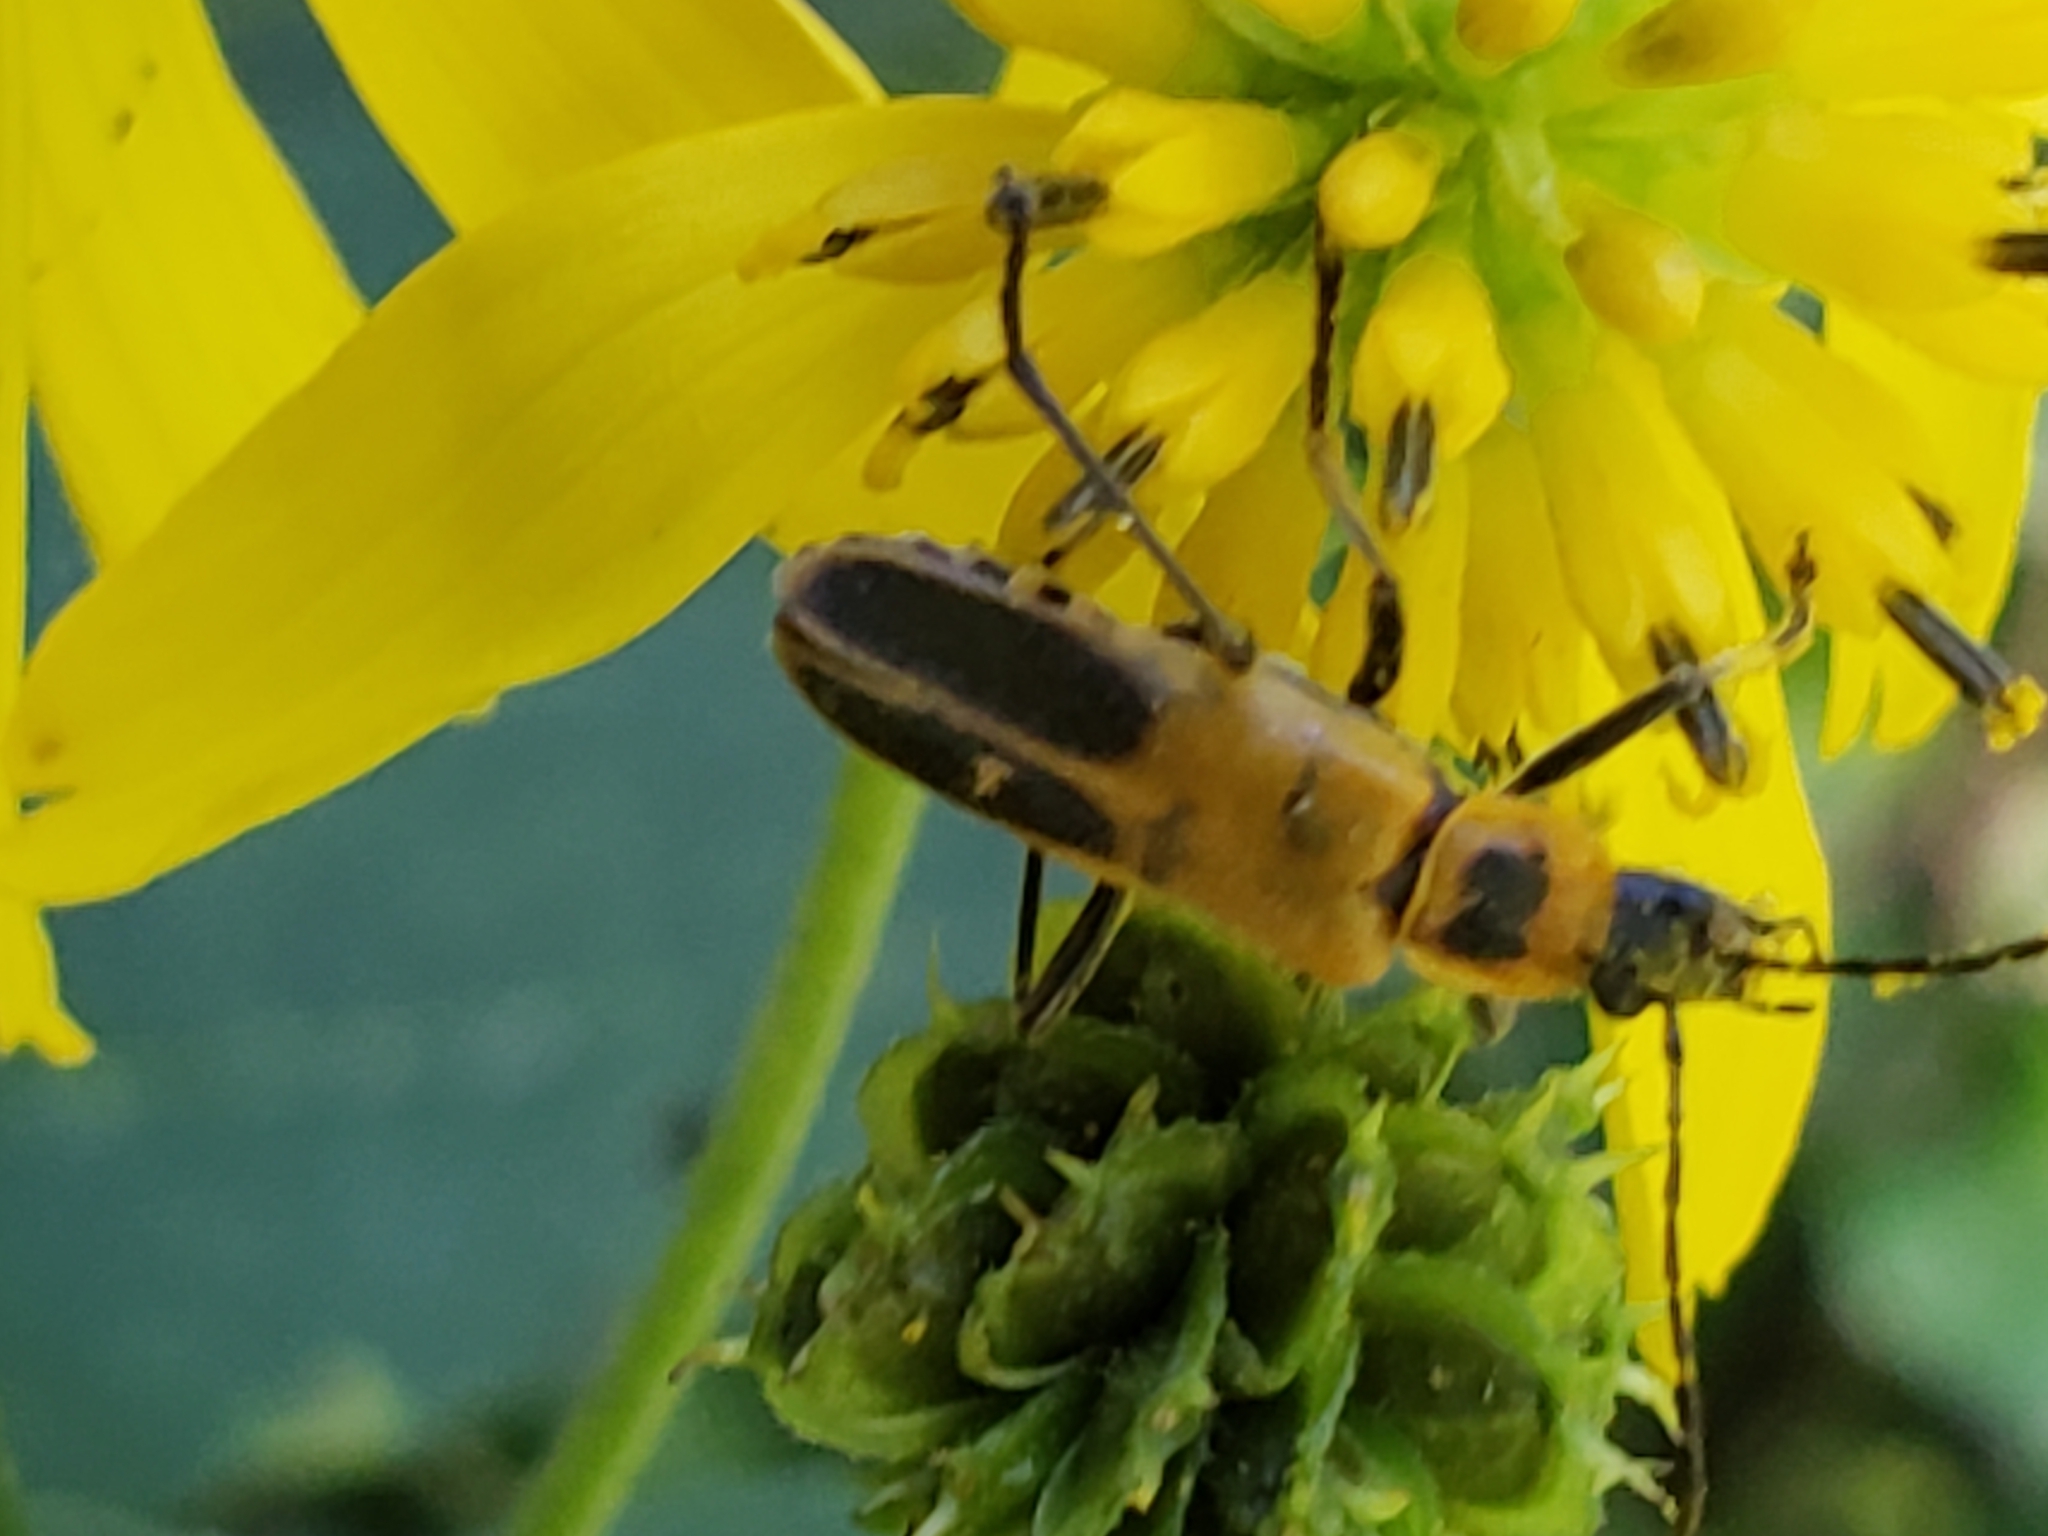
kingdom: Animalia
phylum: Arthropoda
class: Insecta
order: Coleoptera
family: Cantharidae
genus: Chauliognathus
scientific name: Chauliognathus pensylvanicus
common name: Goldenrod soldier beetle
